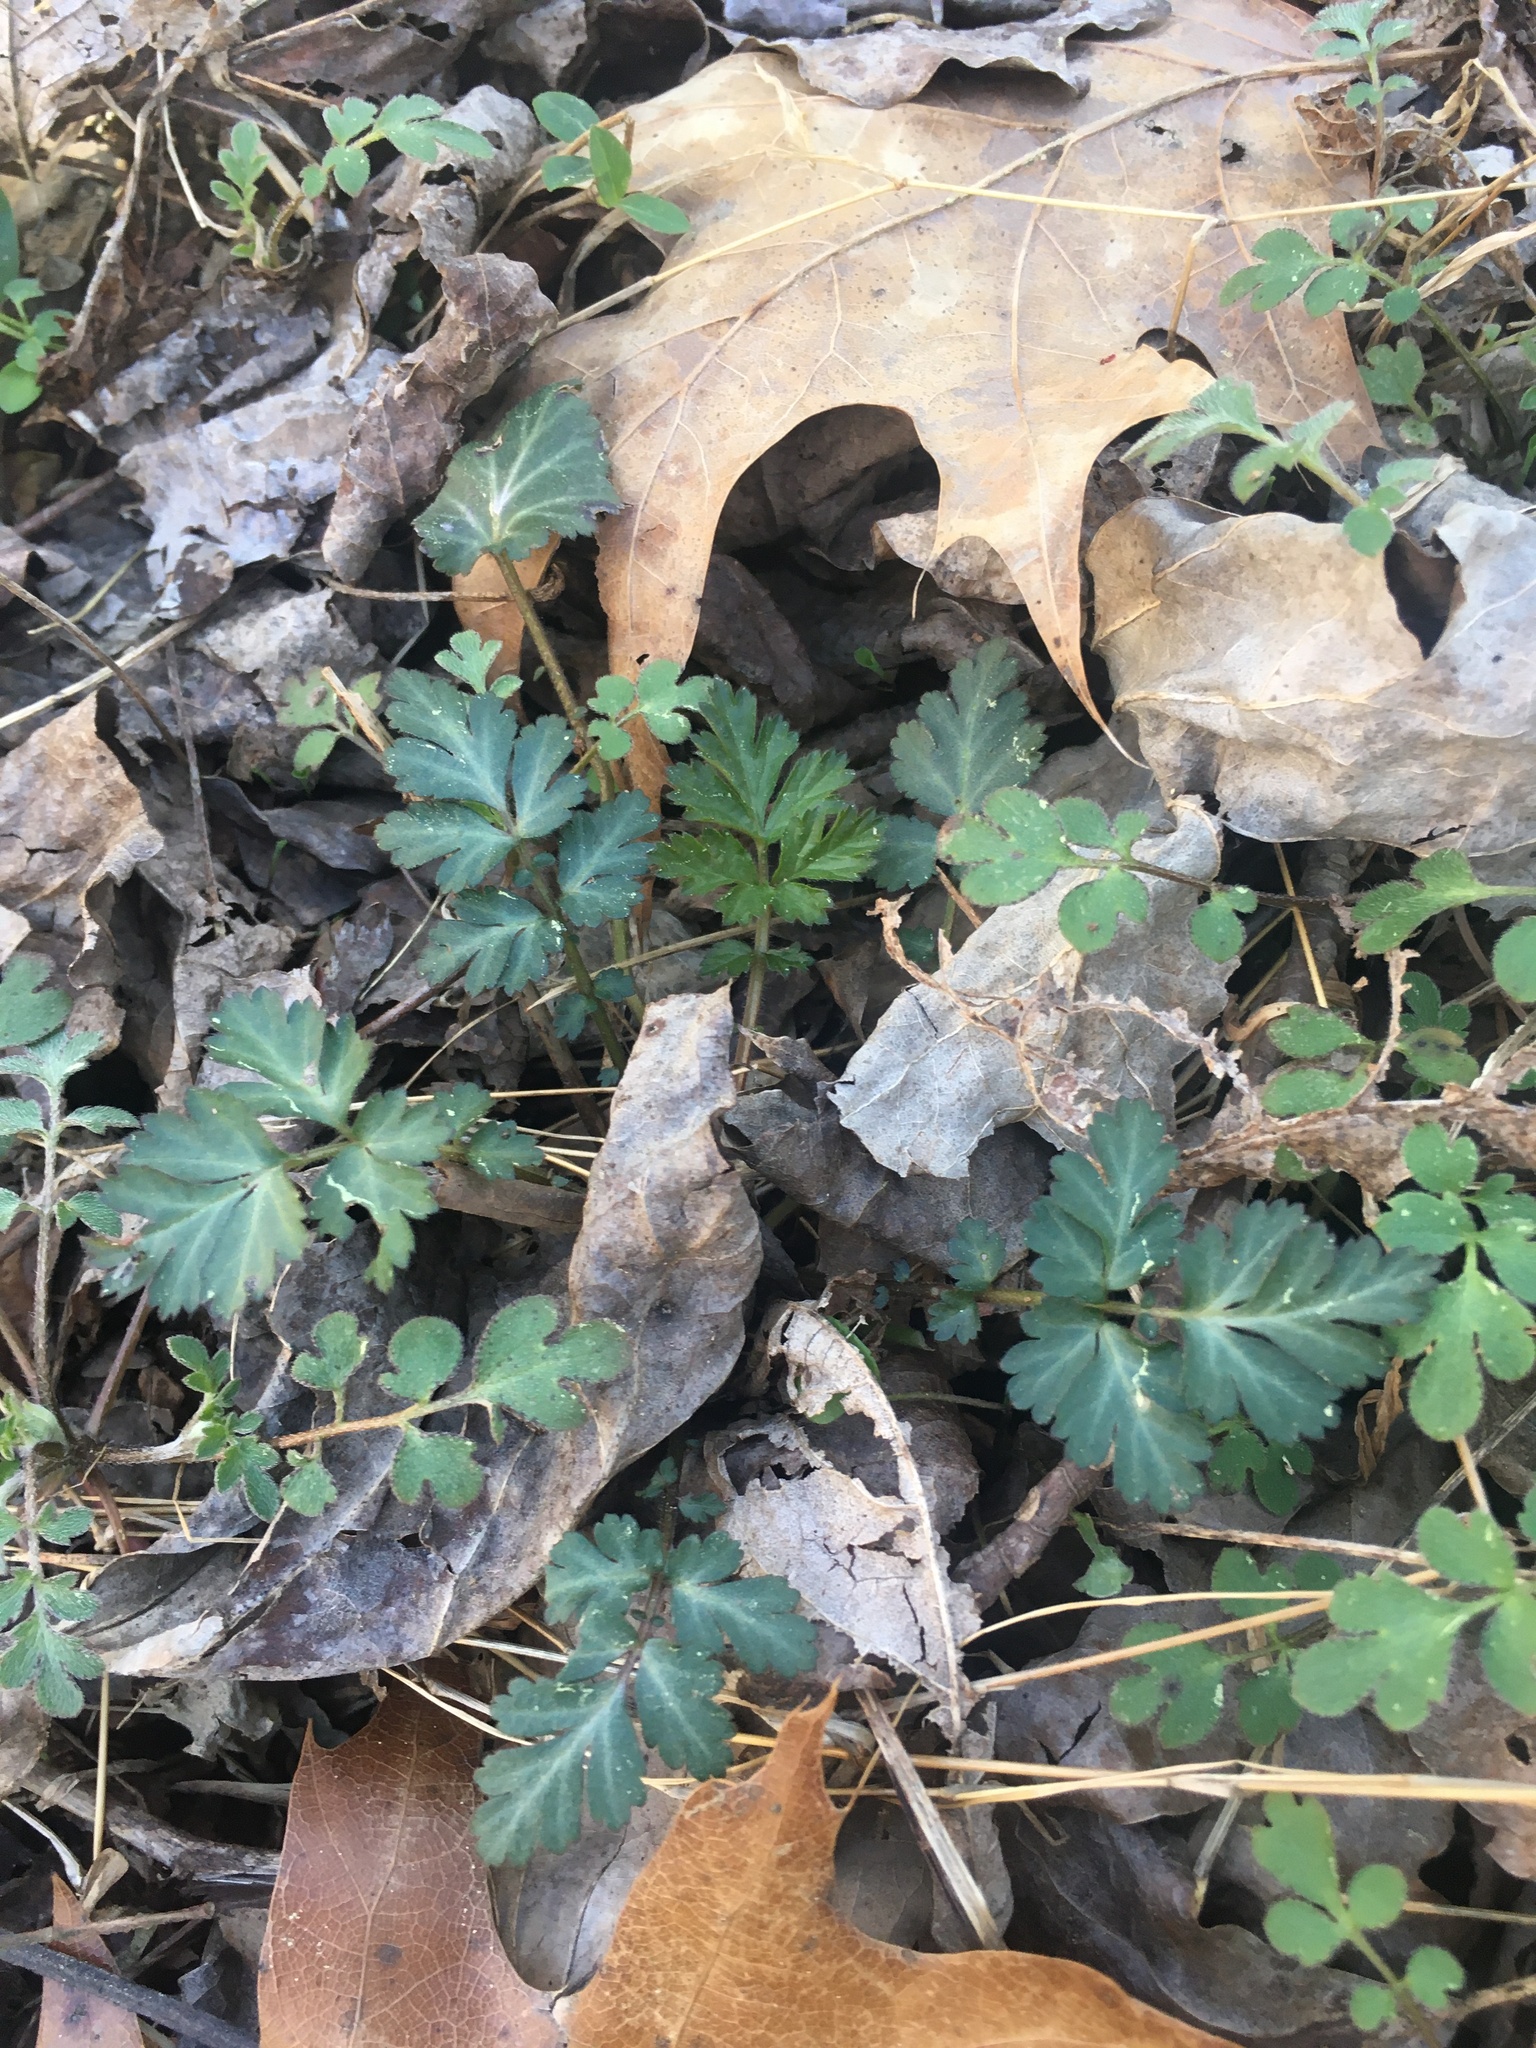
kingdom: Plantae
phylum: Tracheophyta
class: Magnoliopsida
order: Rosales
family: Rosaceae
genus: Geum
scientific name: Geum canadense
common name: White avens
